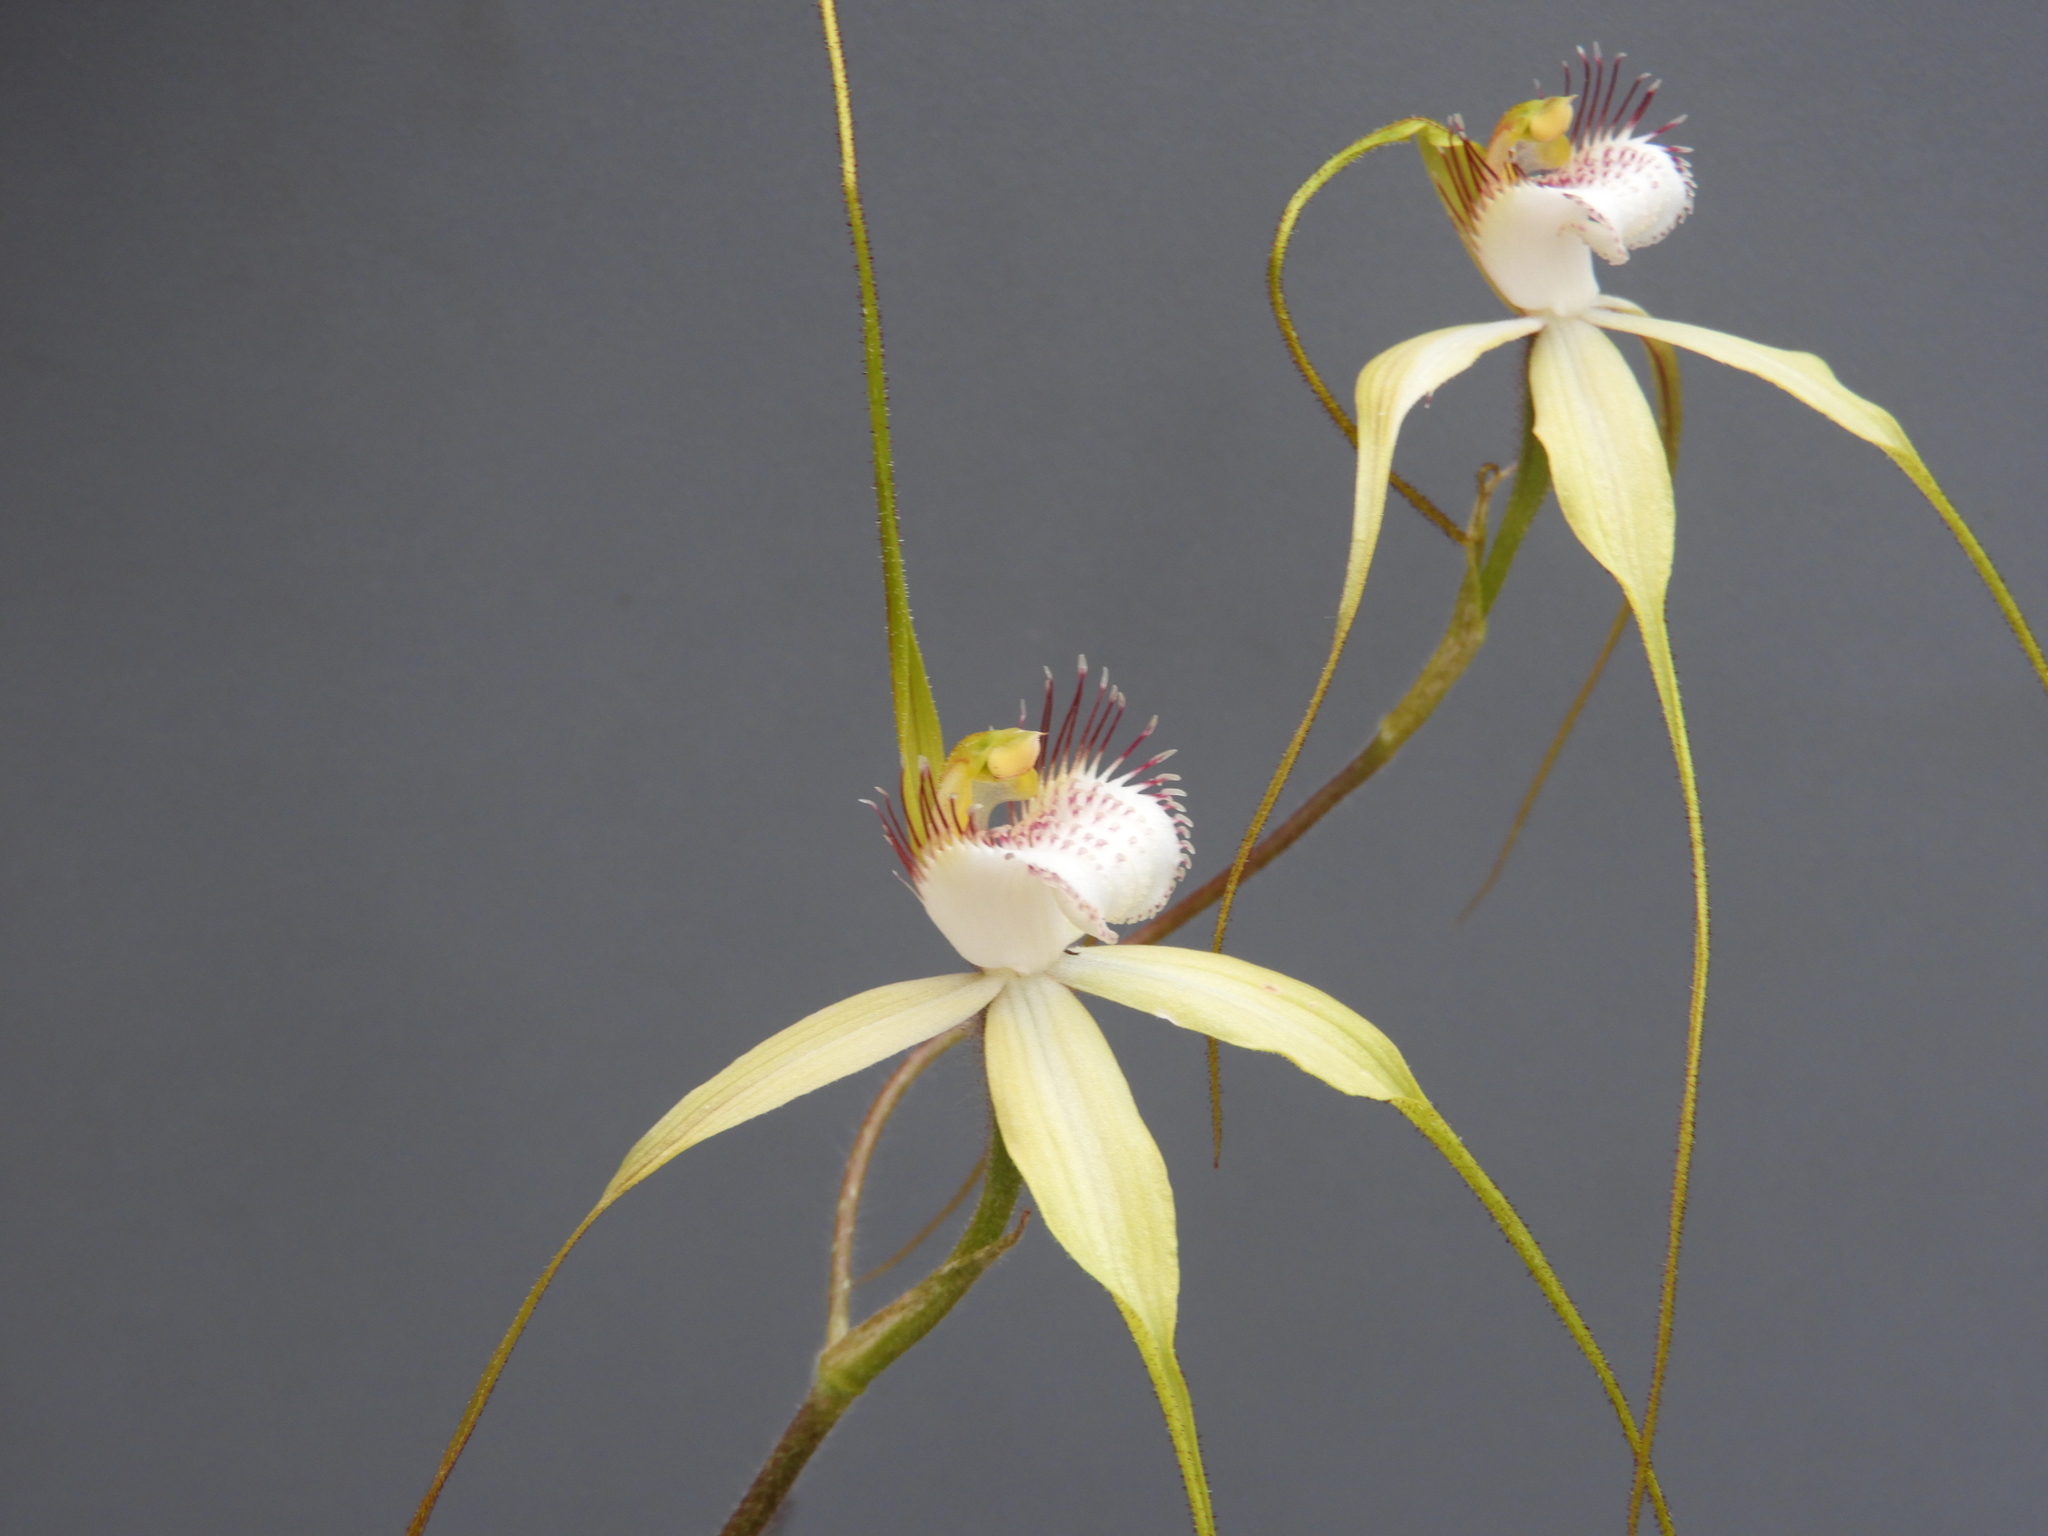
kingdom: Plantae
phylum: Tracheophyta
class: Liliopsida
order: Asparagales
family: Orchidaceae
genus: Caladenia
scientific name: Caladenia longicauda
